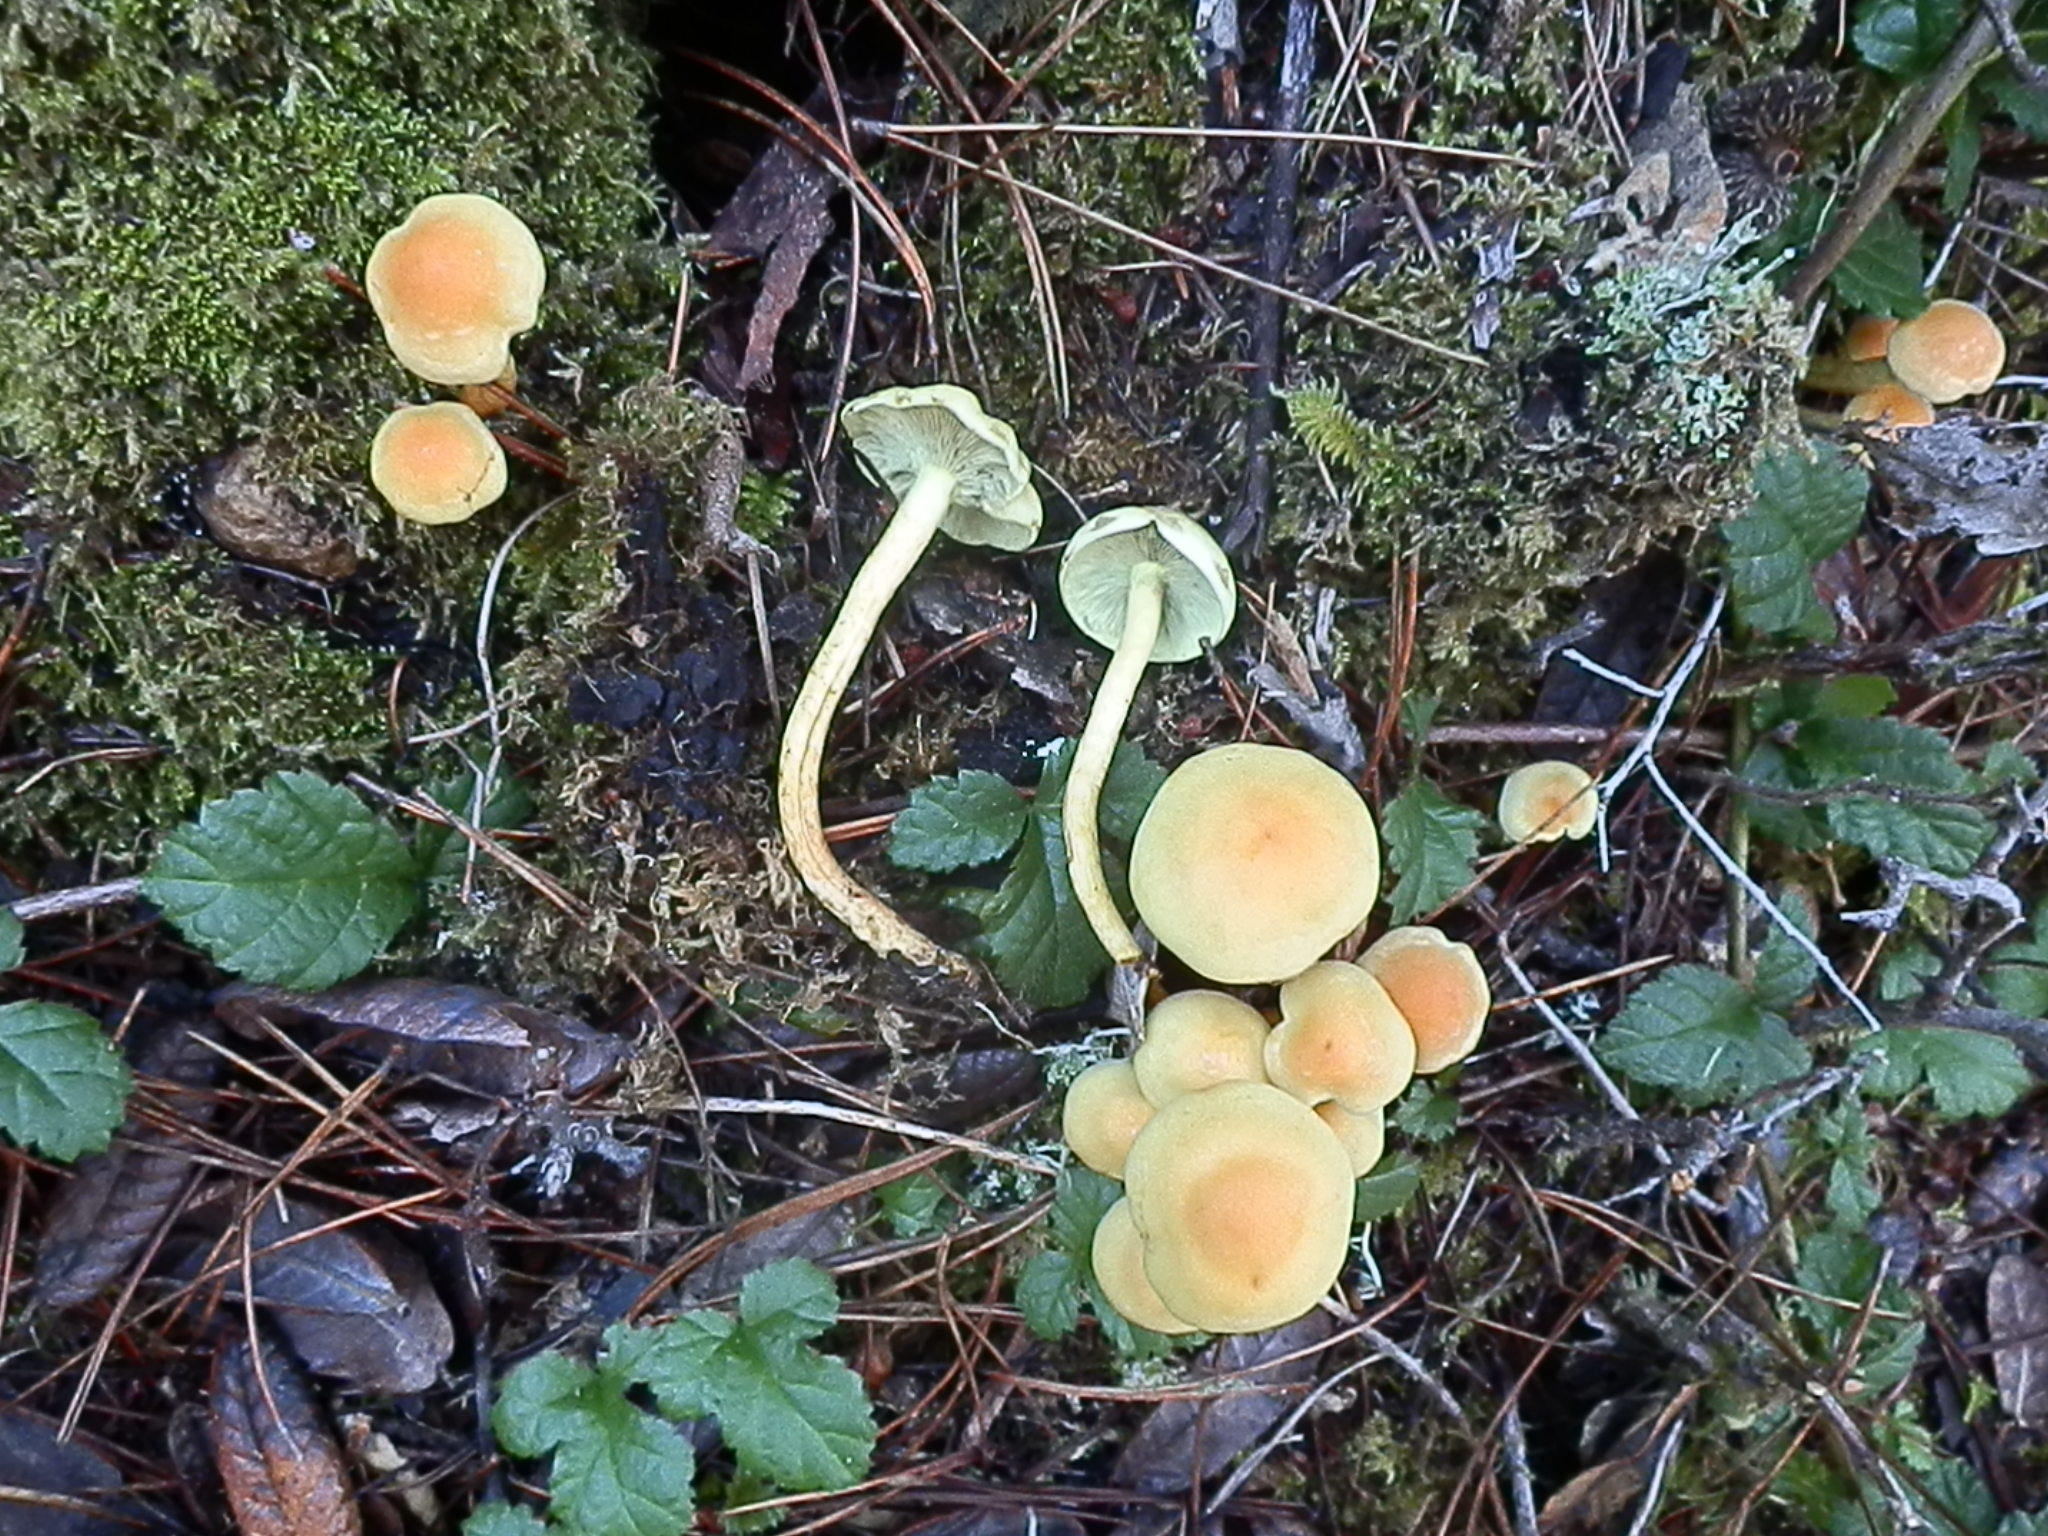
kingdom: Fungi
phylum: Basidiomycota
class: Agaricomycetes
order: Agaricales
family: Strophariaceae
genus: Hypholoma
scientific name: Hypholoma fasciculare
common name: Sulphur tuft
